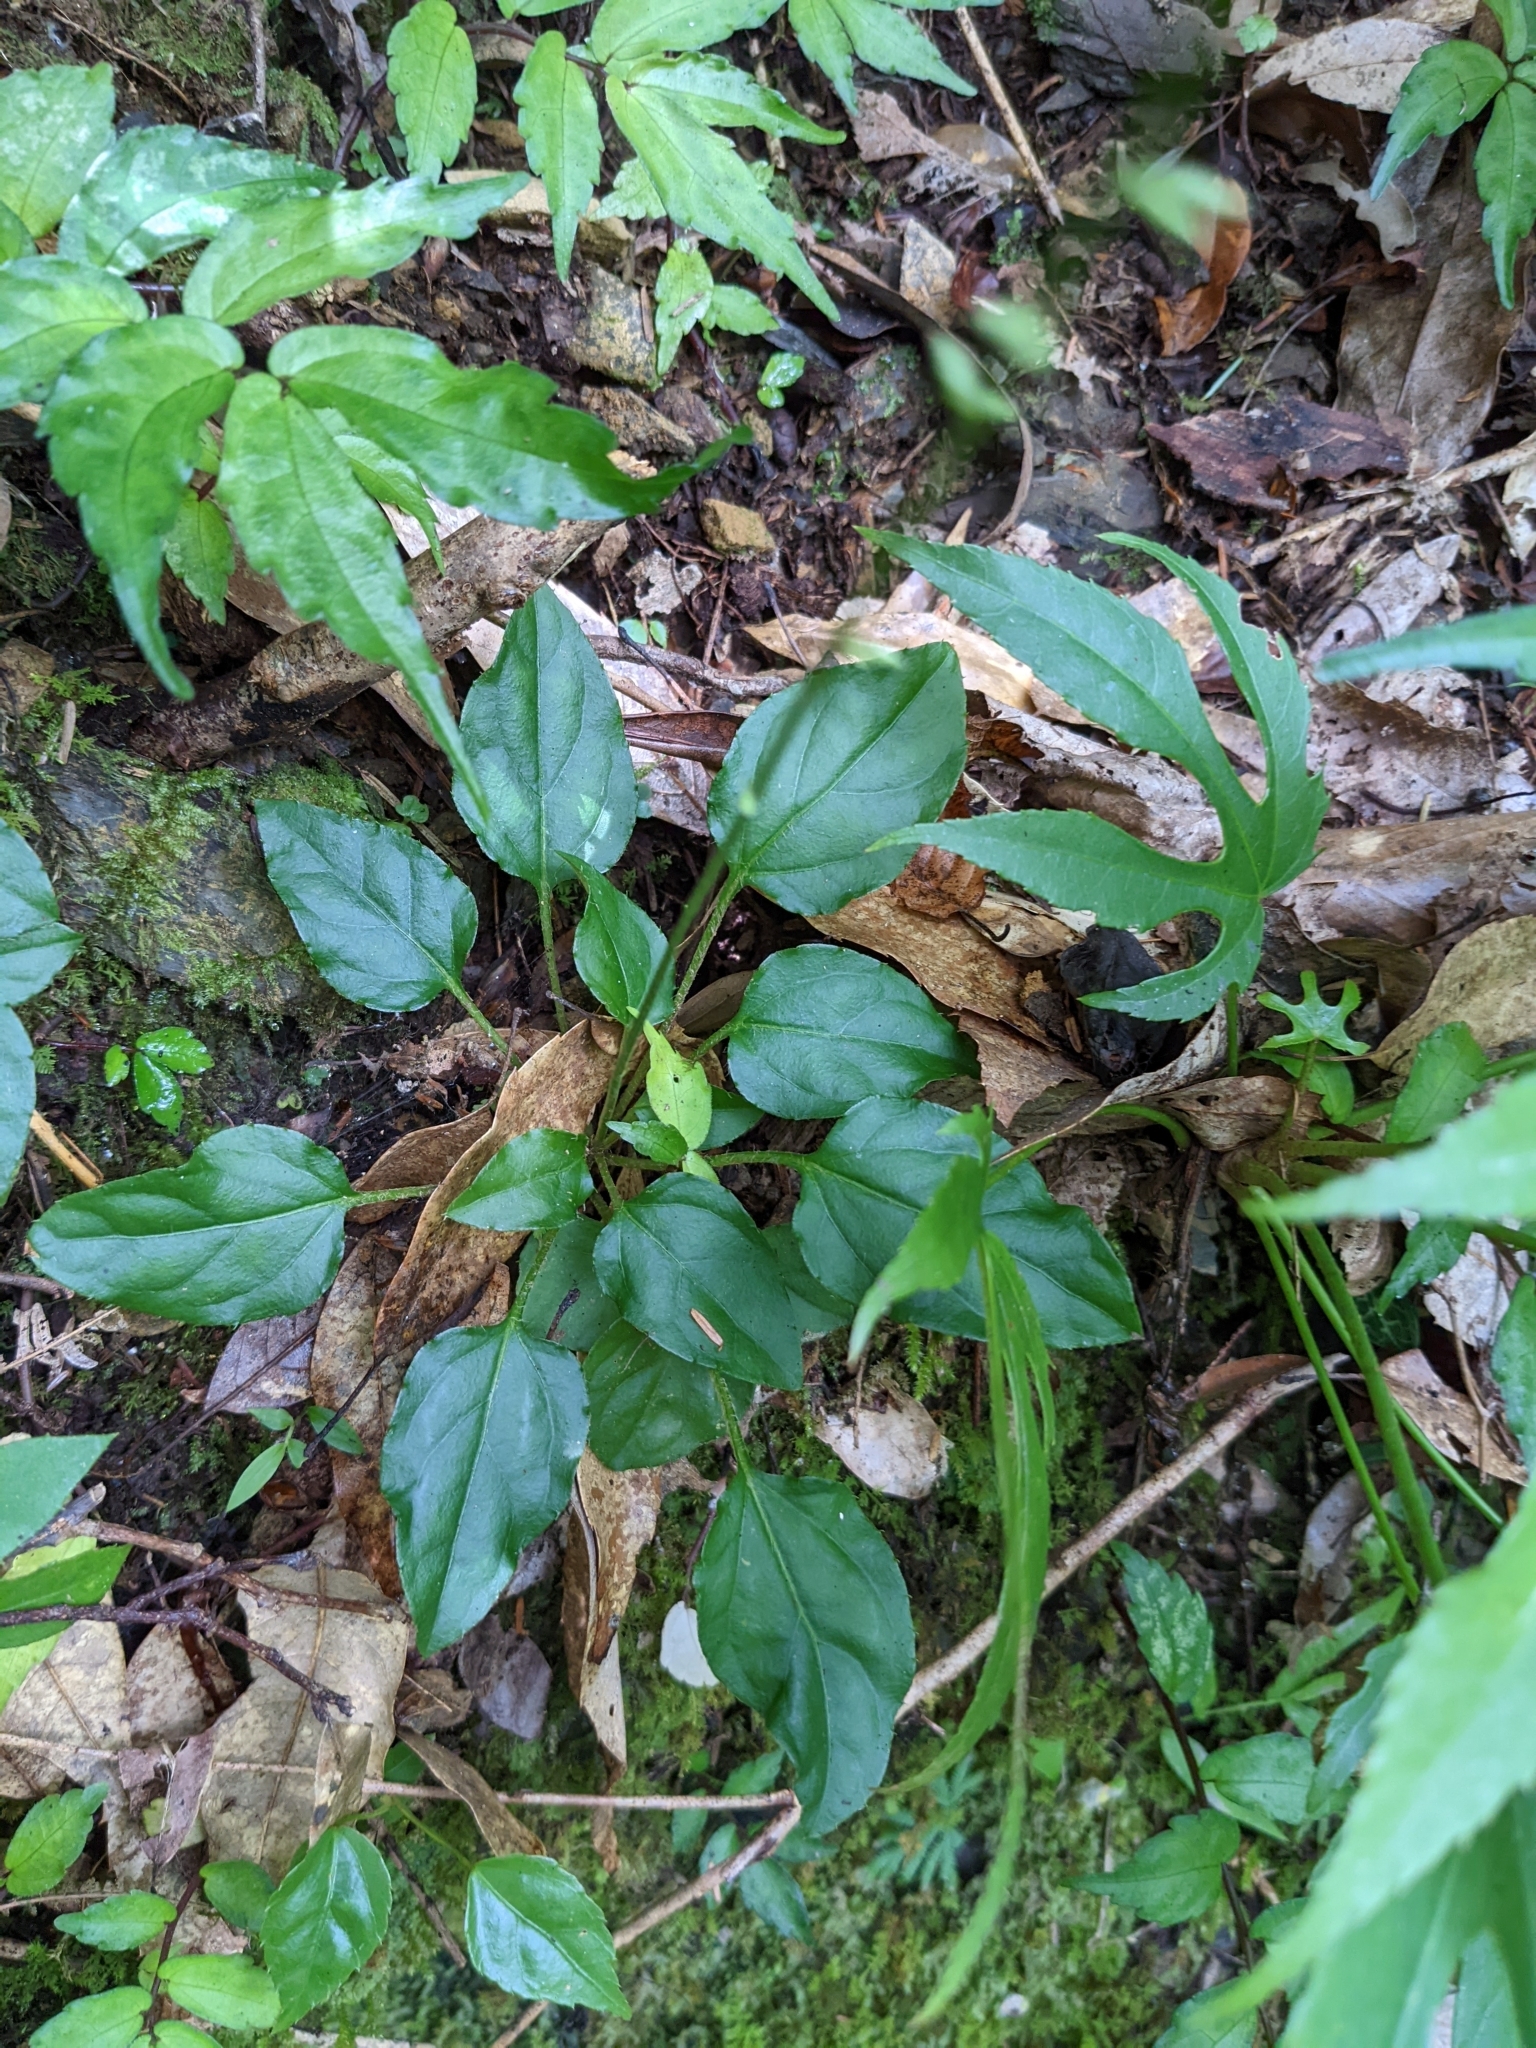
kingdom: Plantae
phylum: Tracheophyta
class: Magnoliopsida
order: Asterales
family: Asteraceae
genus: Ainsliaea
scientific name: Ainsliaea macroclinidioides
